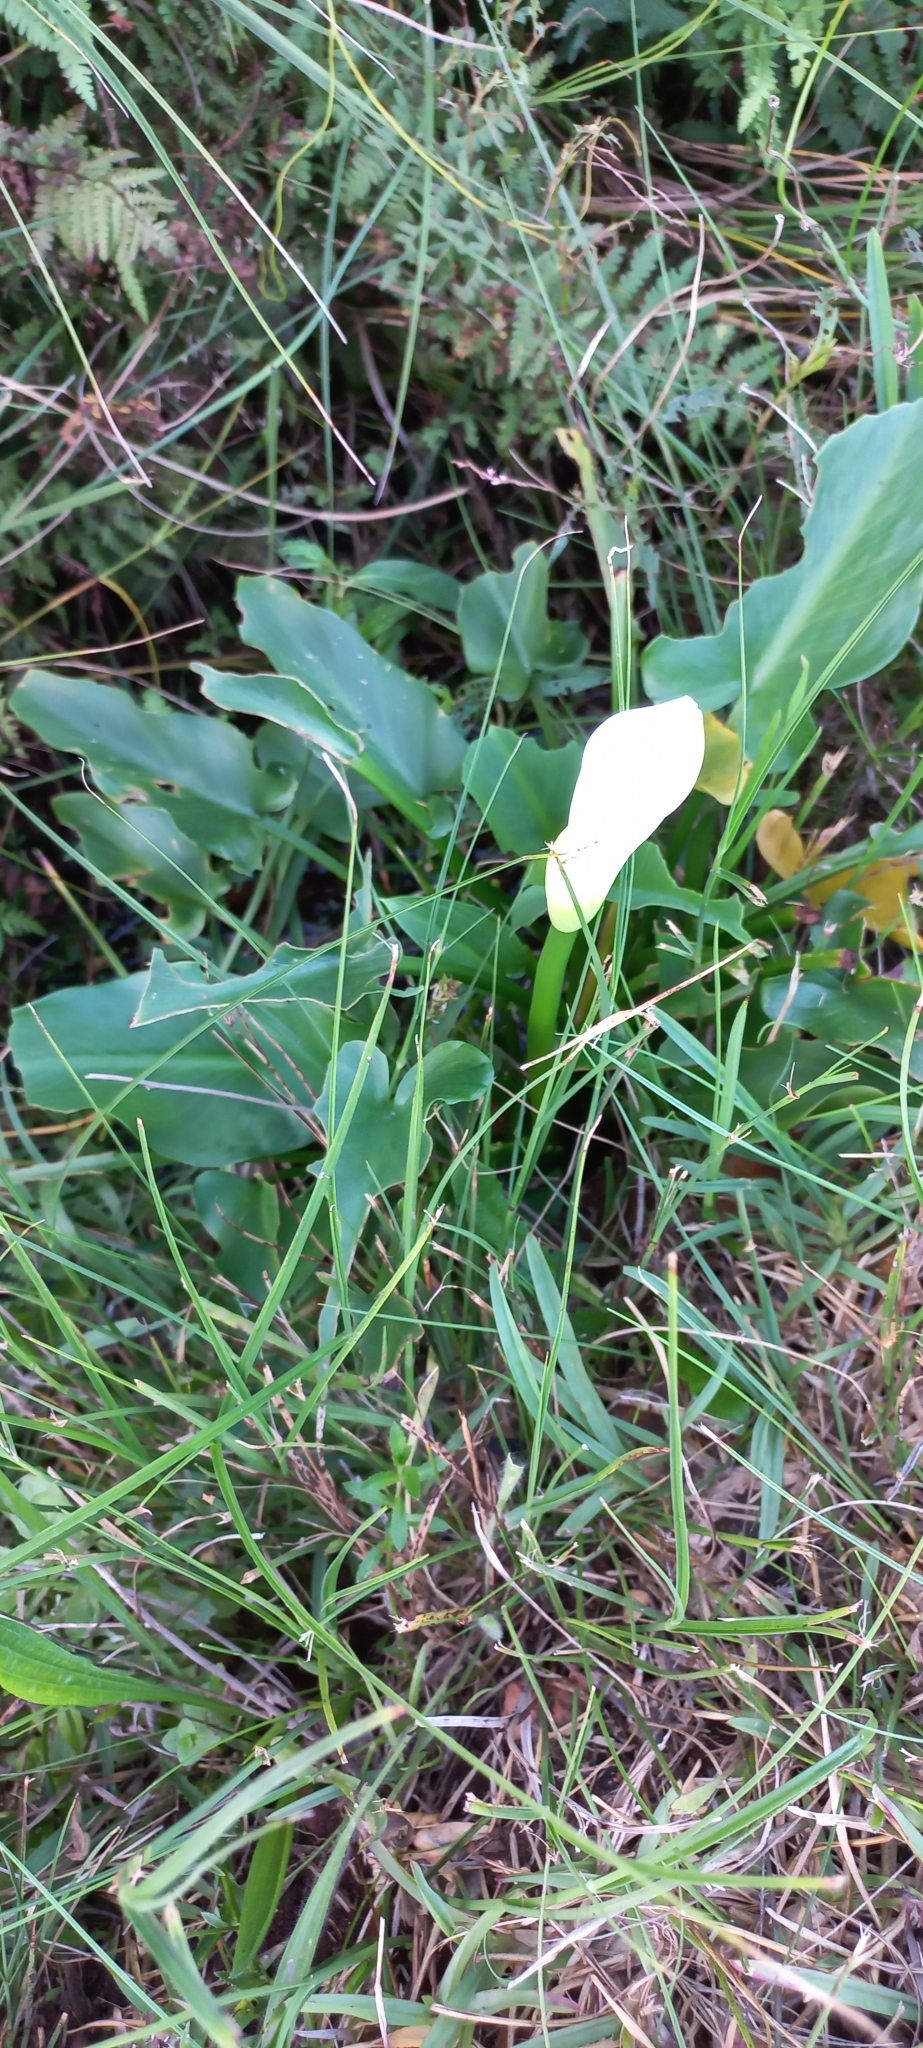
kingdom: Plantae
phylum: Tracheophyta
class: Liliopsida
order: Alismatales
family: Araceae
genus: Zantedeschia
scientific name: Zantedeschia aethiopica
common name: Altar-lily
